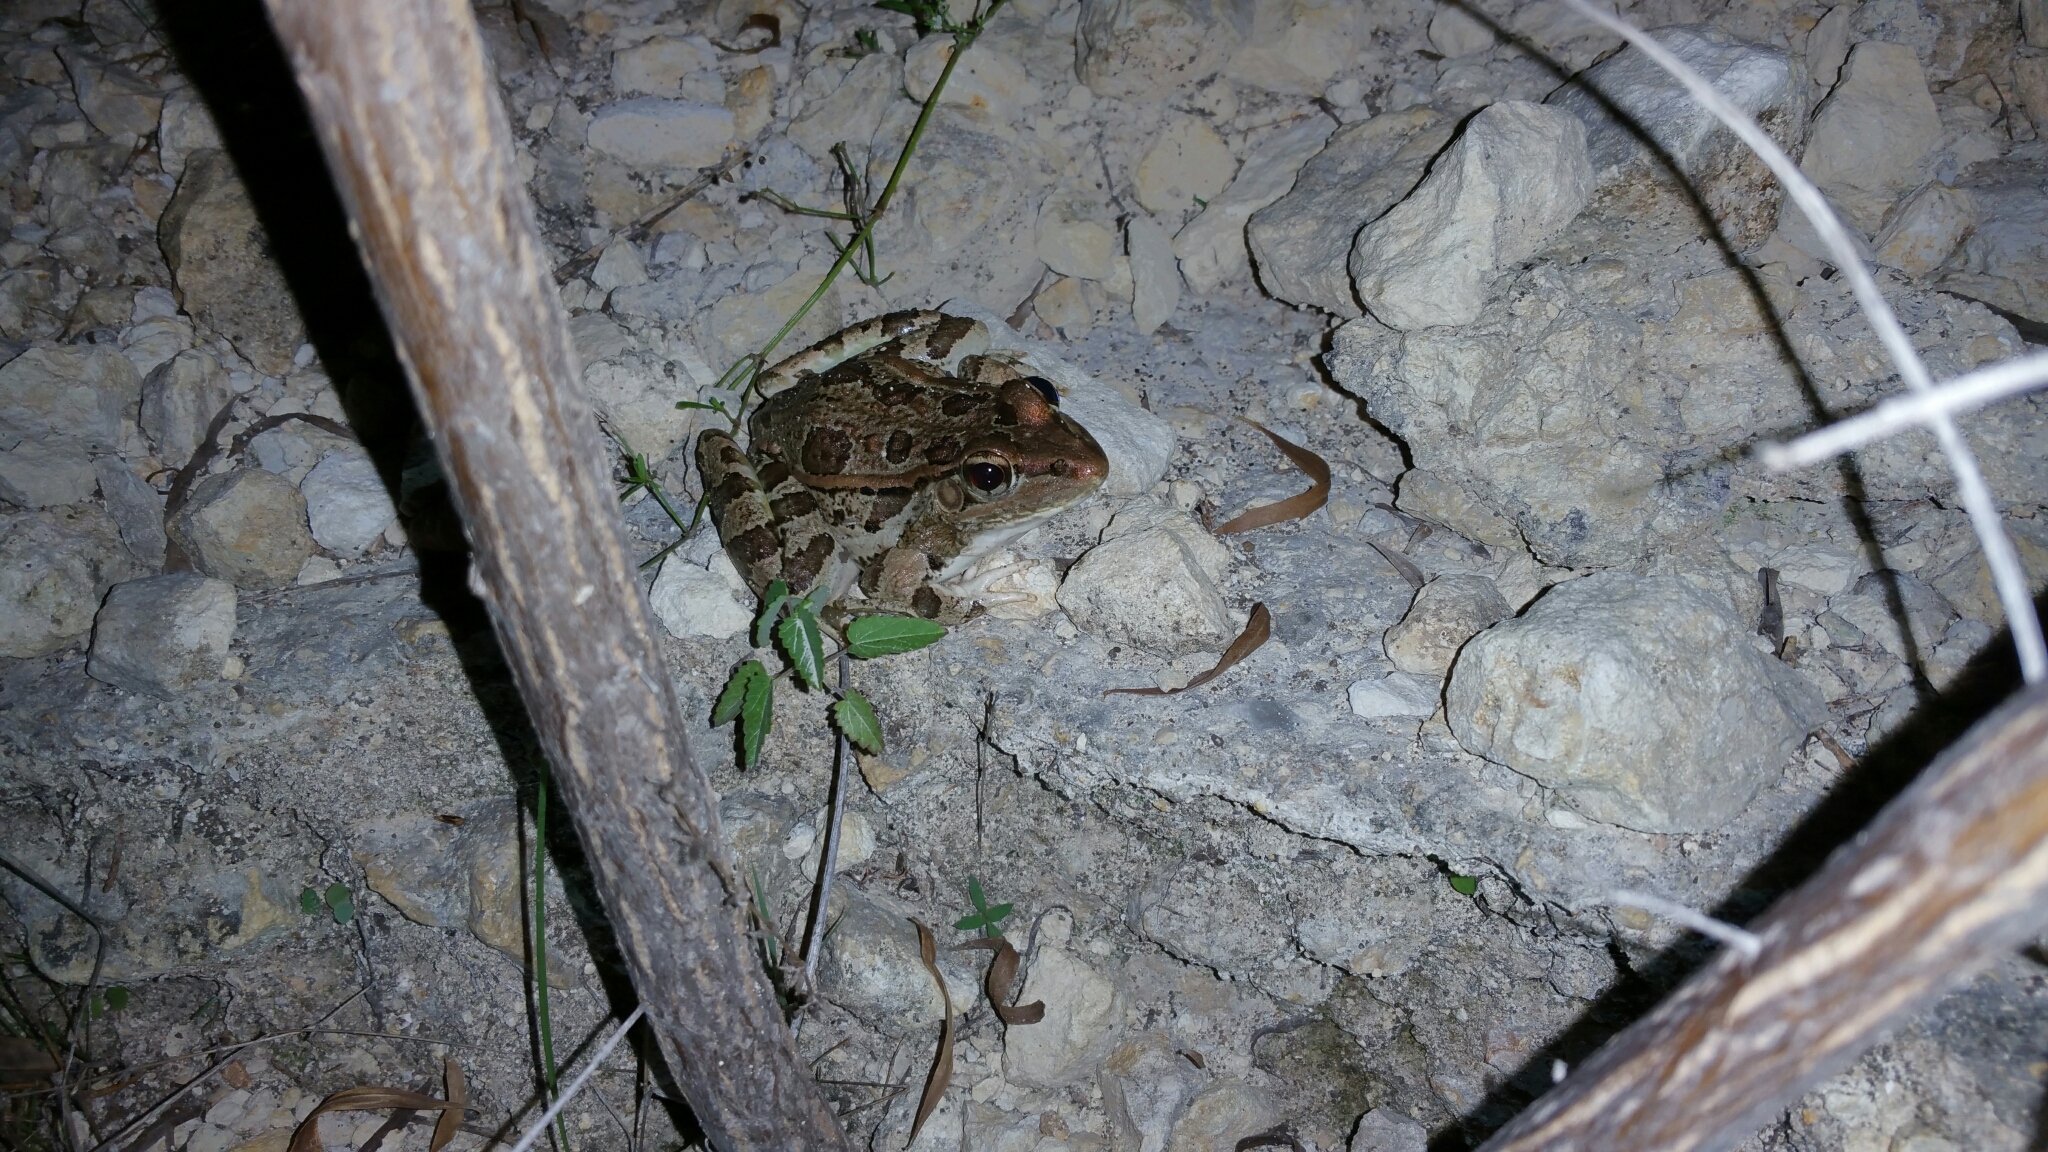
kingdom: Animalia
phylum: Chordata
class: Amphibia
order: Anura
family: Ranidae
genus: Lithobates
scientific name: Lithobates berlandieri
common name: Rio grande leopard frog
